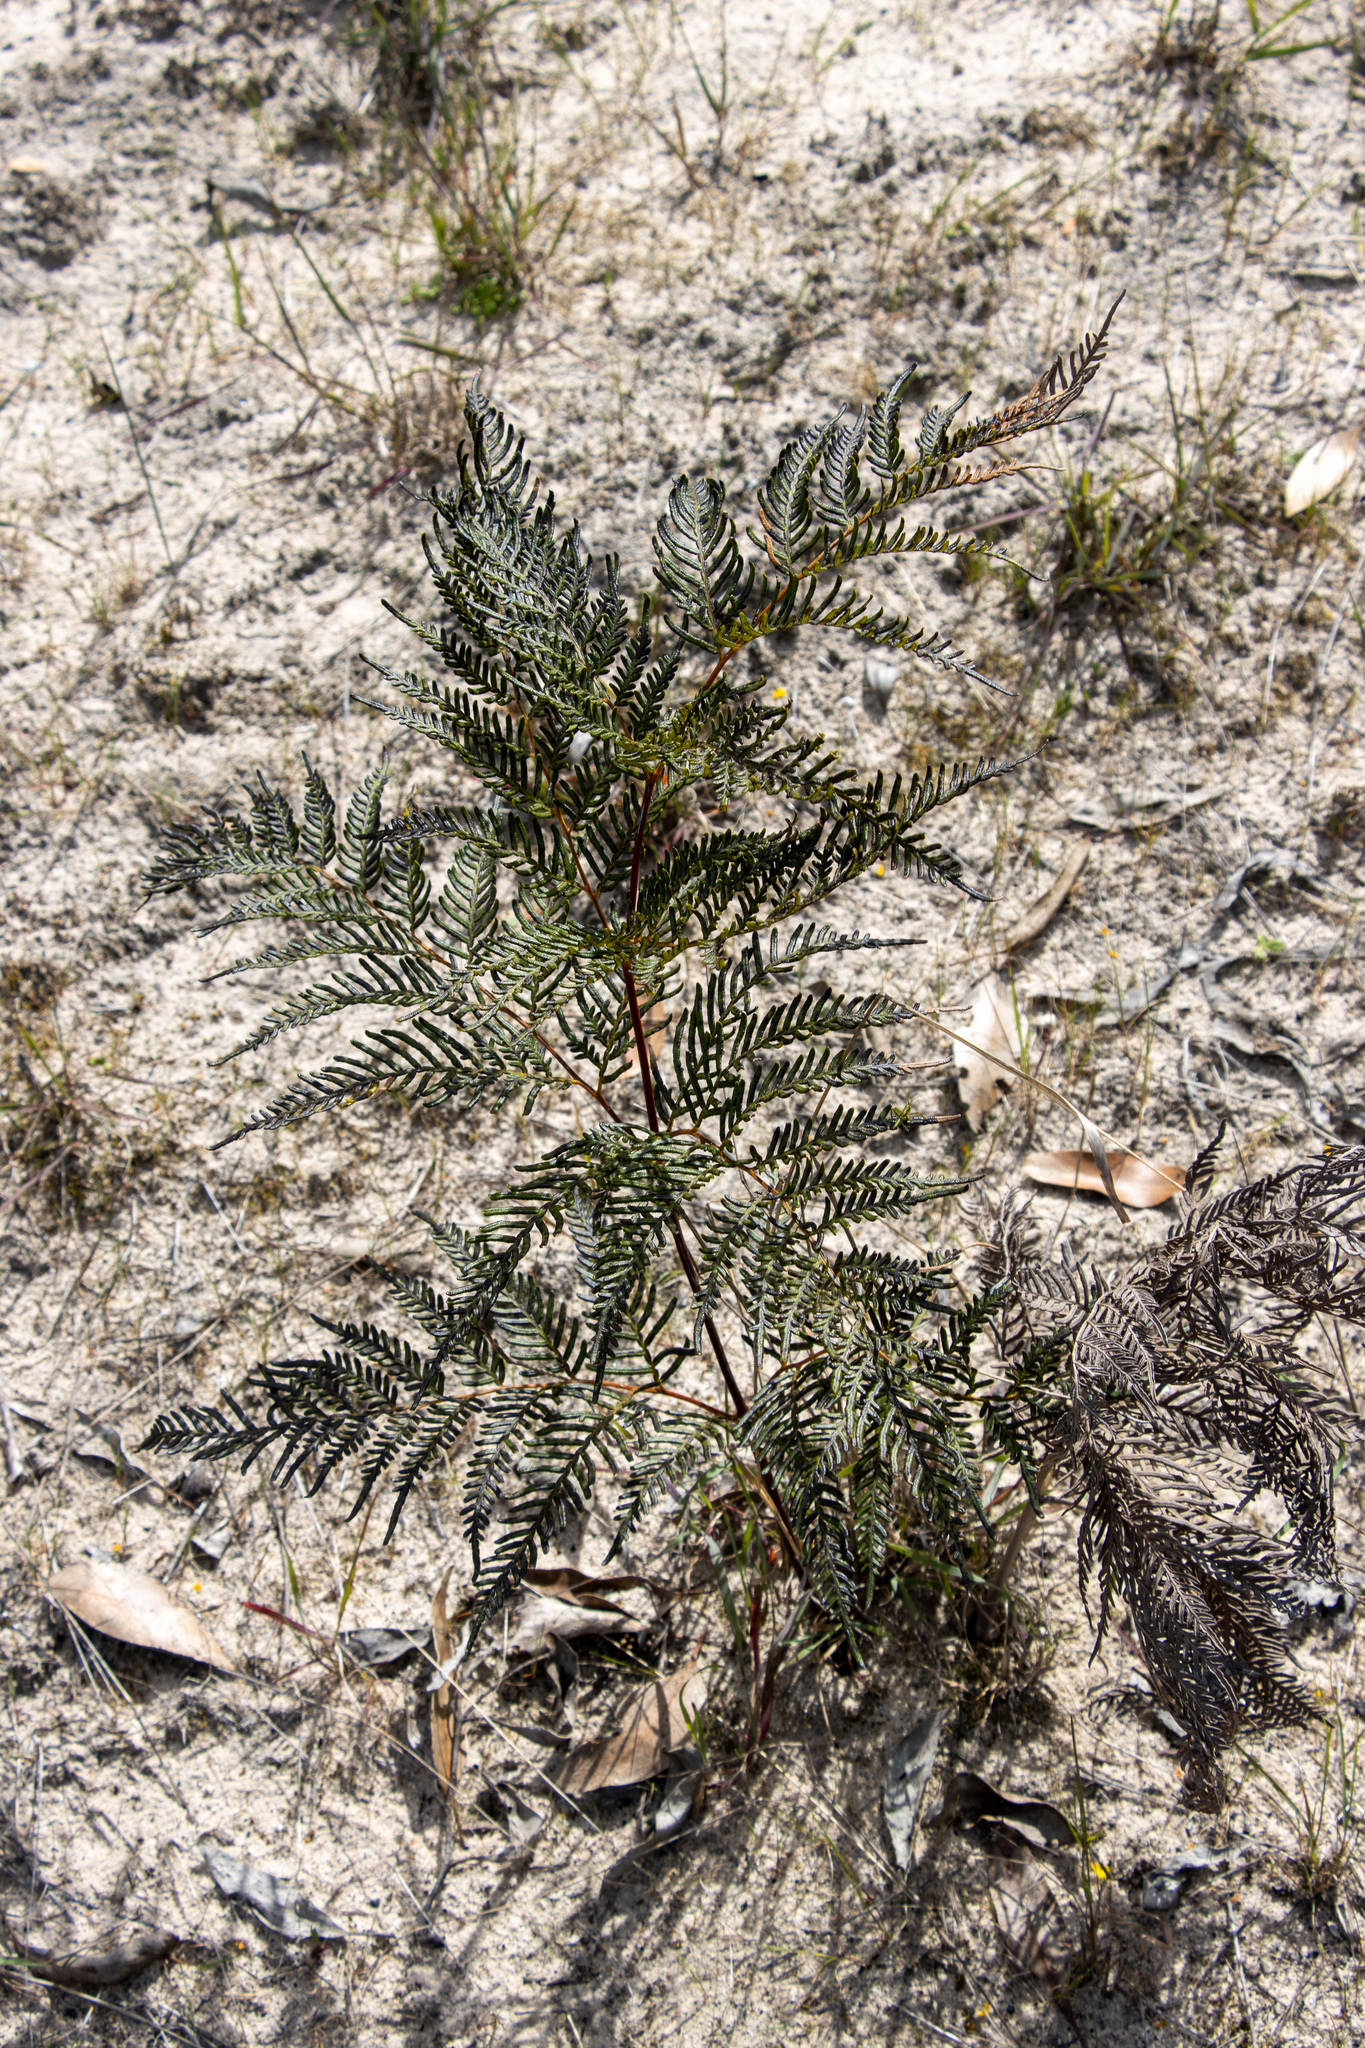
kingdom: Plantae
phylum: Tracheophyta
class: Polypodiopsida
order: Polypodiales
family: Dennstaedtiaceae
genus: Pteridium
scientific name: Pteridium esculentum
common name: Bracken fern
